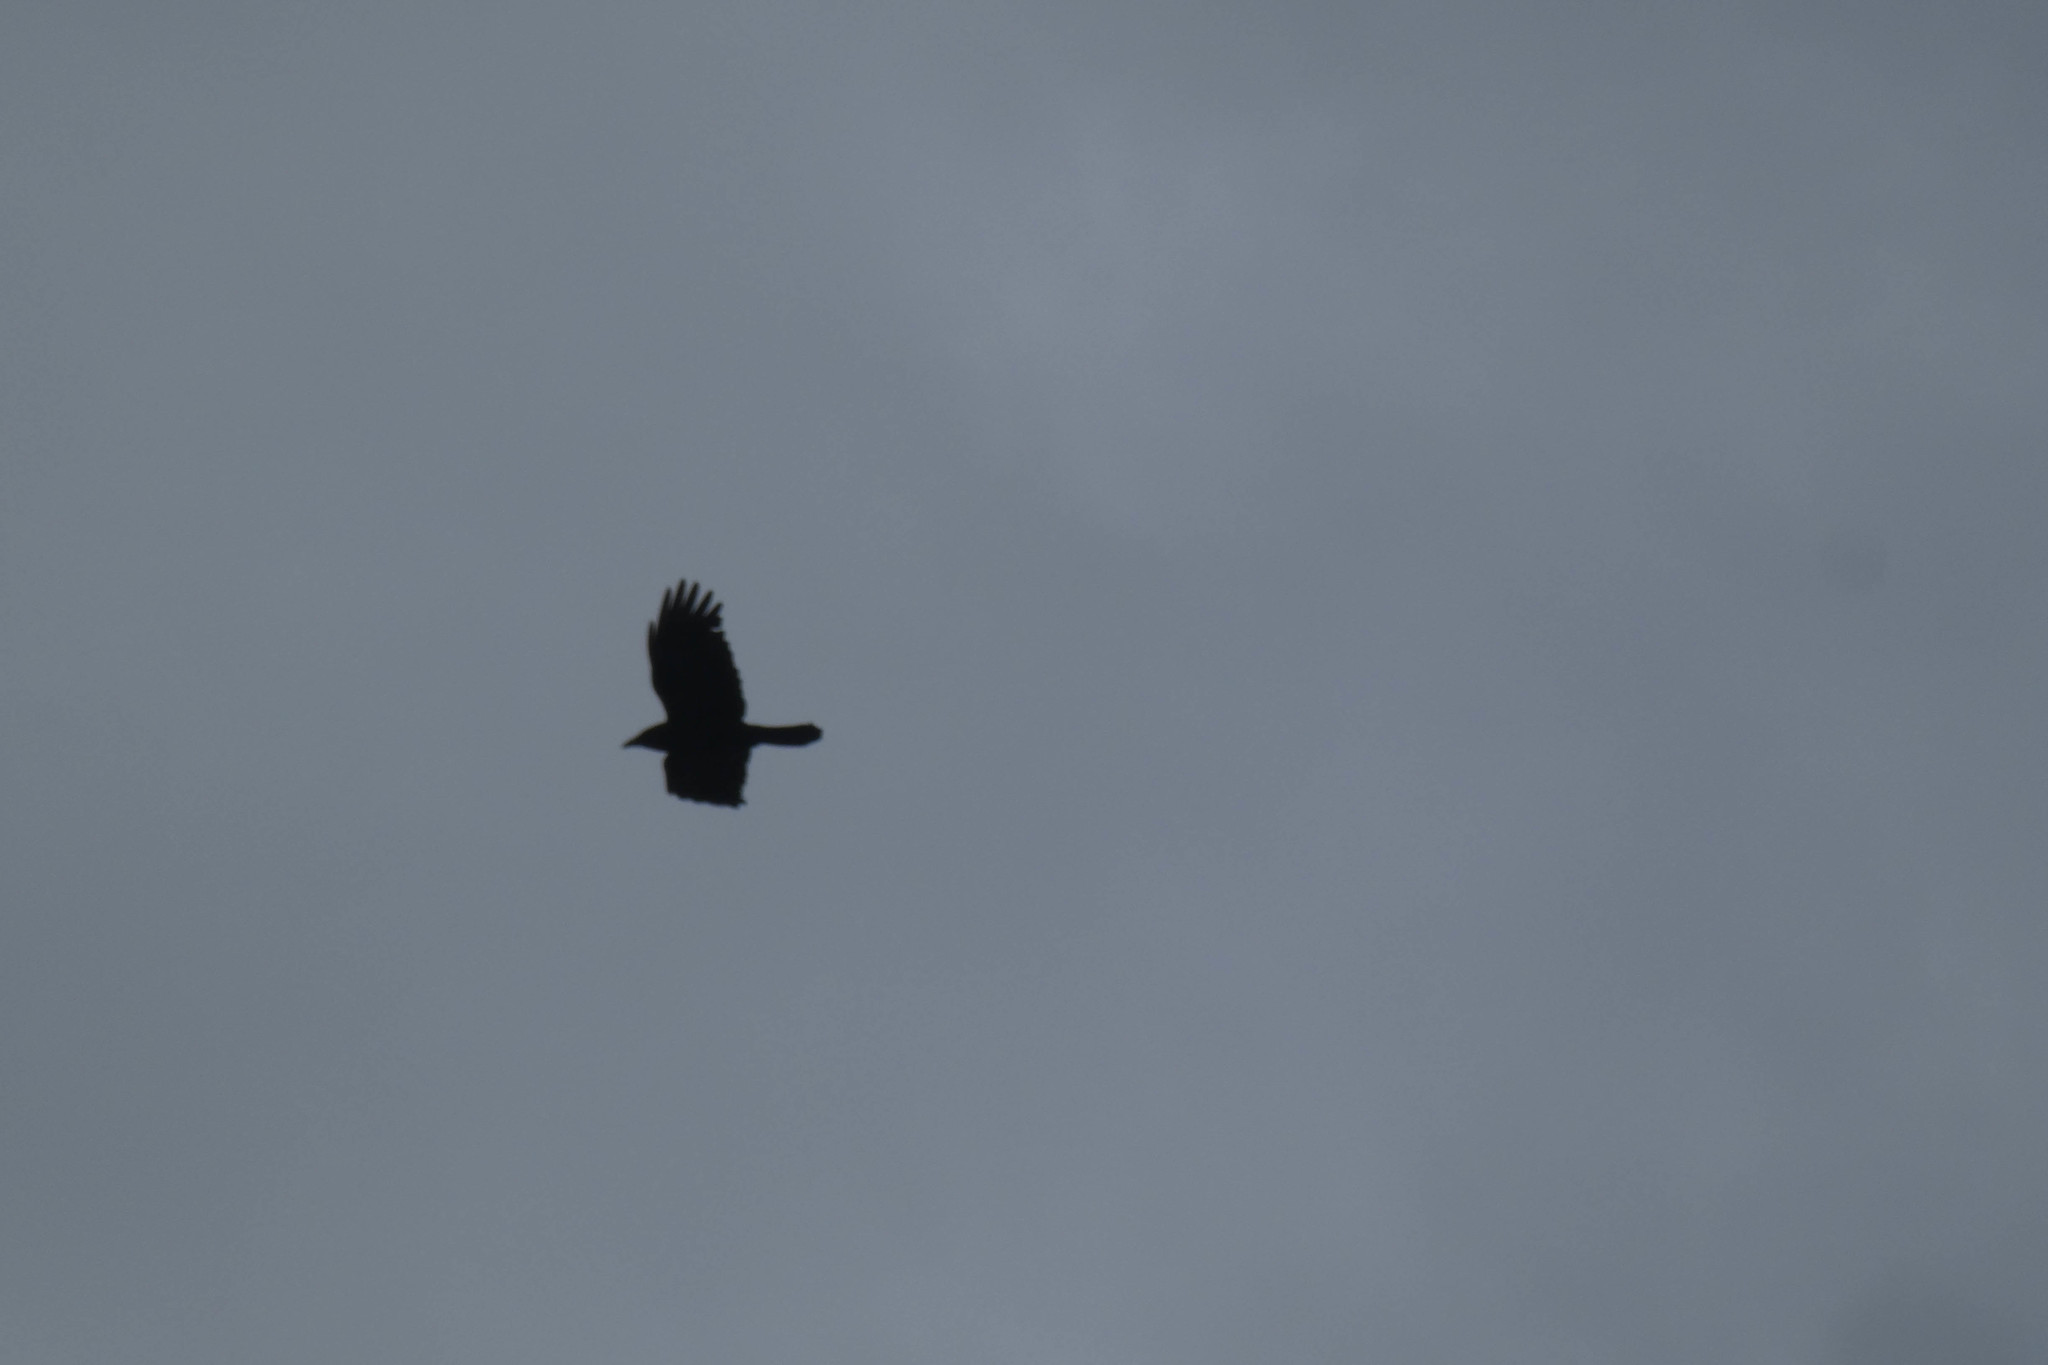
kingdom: Animalia
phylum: Chordata
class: Aves
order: Passeriformes
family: Corvidae
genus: Corvus
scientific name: Corvus brachyrhynchos
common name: American crow
